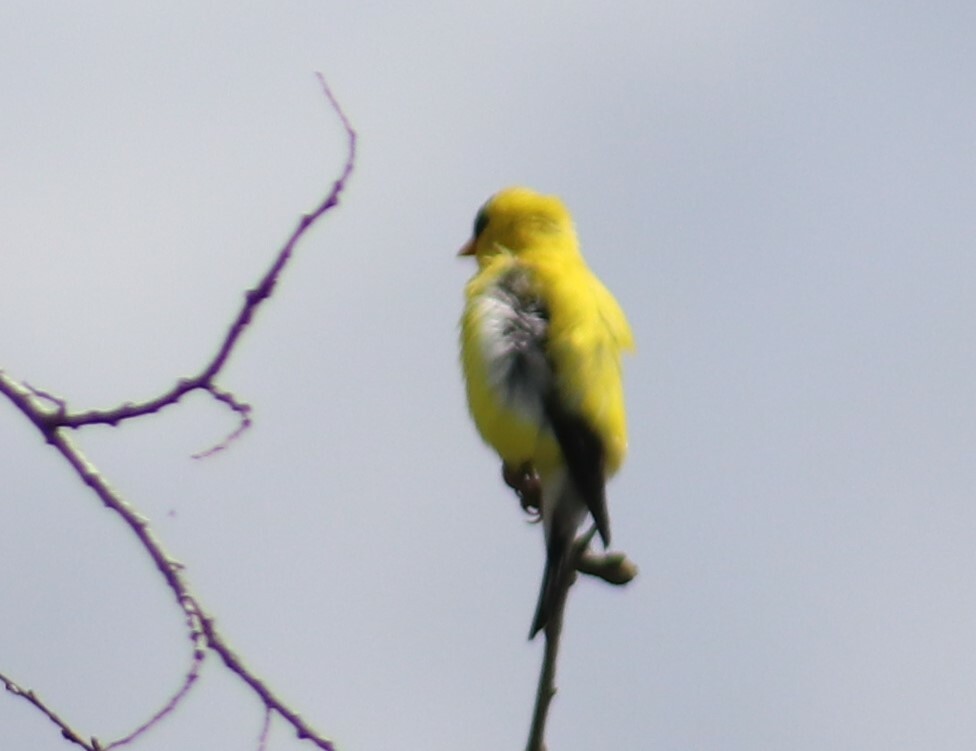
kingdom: Animalia
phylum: Chordata
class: Aves
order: Passeriformes
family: Fringillidae
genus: Spinus
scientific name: Spinus tristis
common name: American goldfinch
